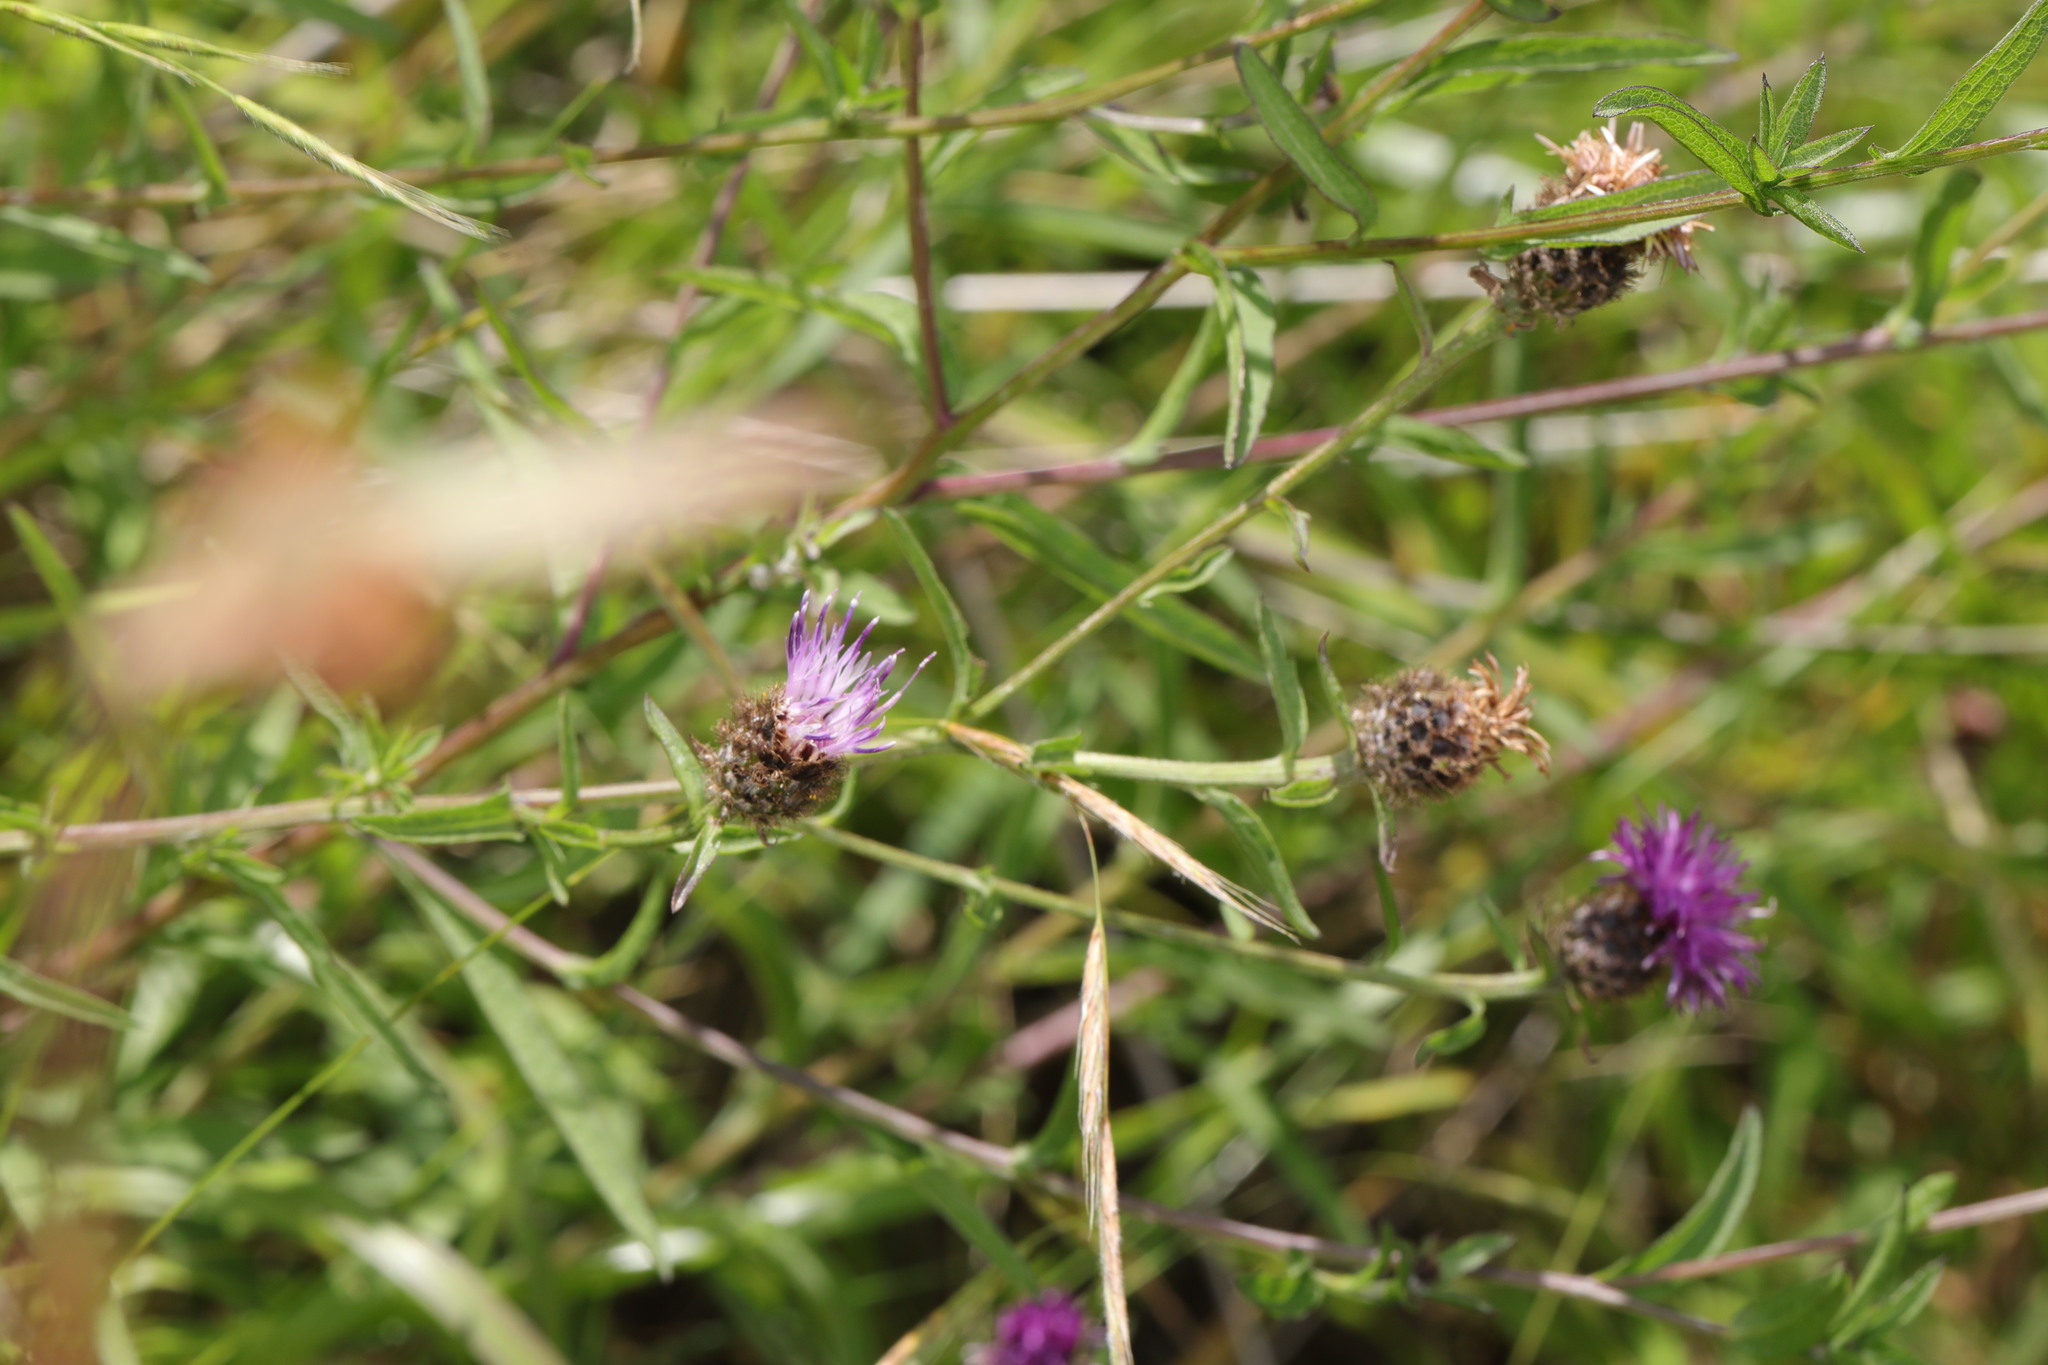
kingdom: Plantae
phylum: Tracheophyta
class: Magnoliopsida
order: Asterales
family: Asteraceae
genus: Centaurea
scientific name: Centaurea nigra
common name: Lesser knapweed
